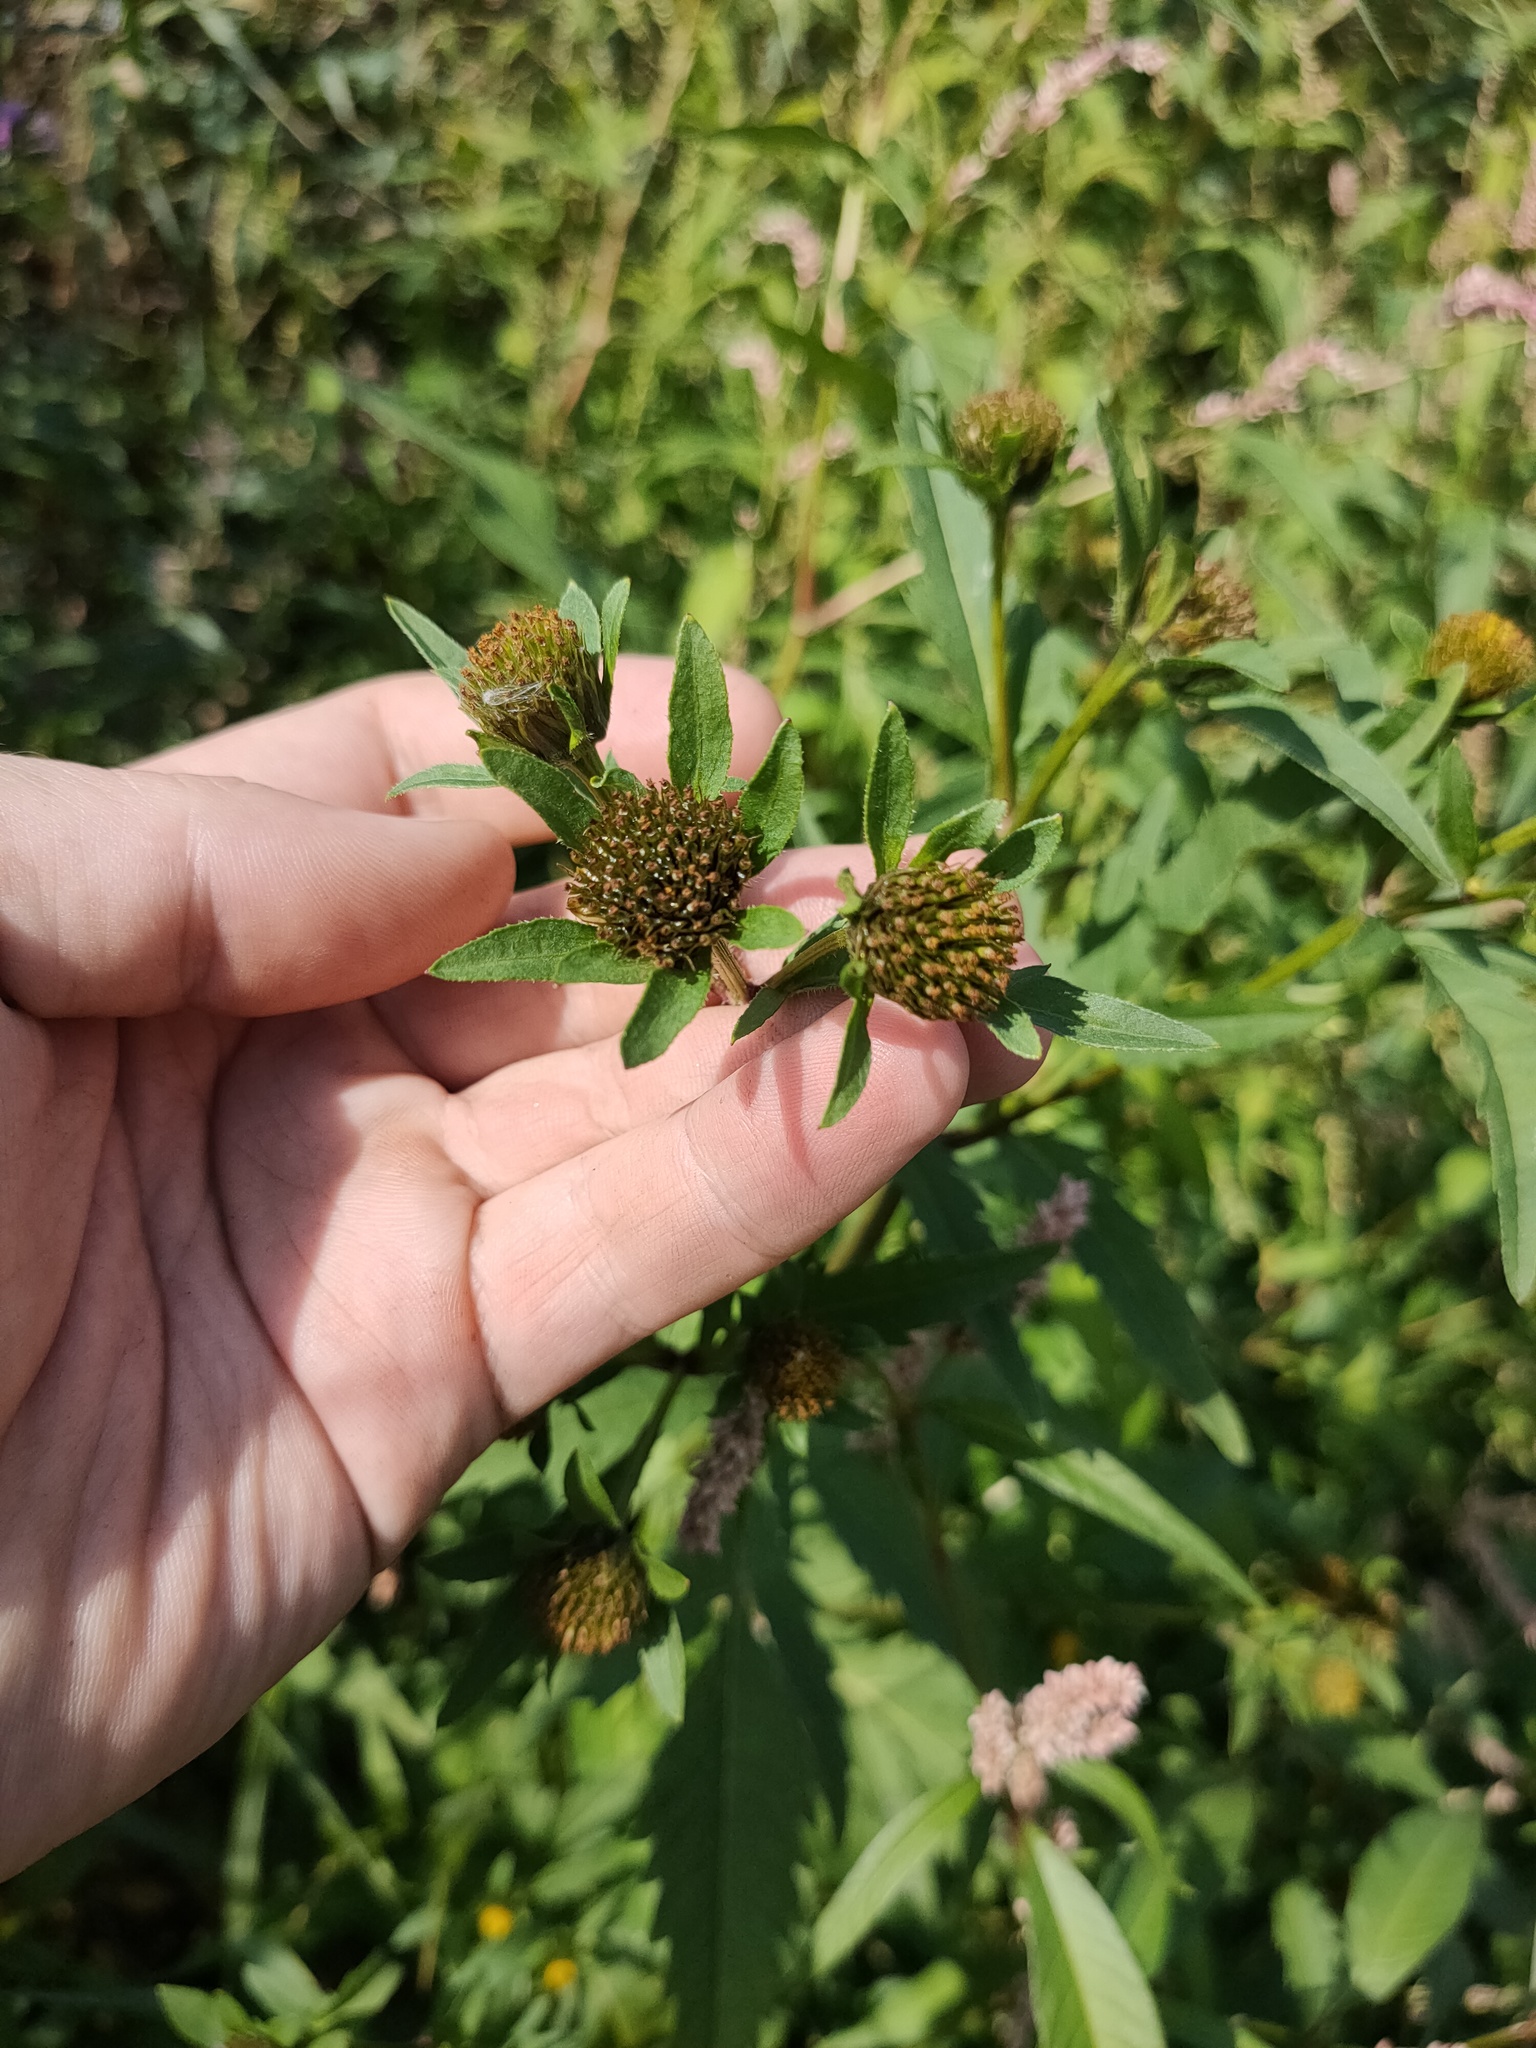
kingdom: Plantae
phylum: Tracheophyta
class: Magnoliopsida
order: Asterales
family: Asteraceae
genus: Bidens
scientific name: Bidens tripartita
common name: Trifid bur-marigold
